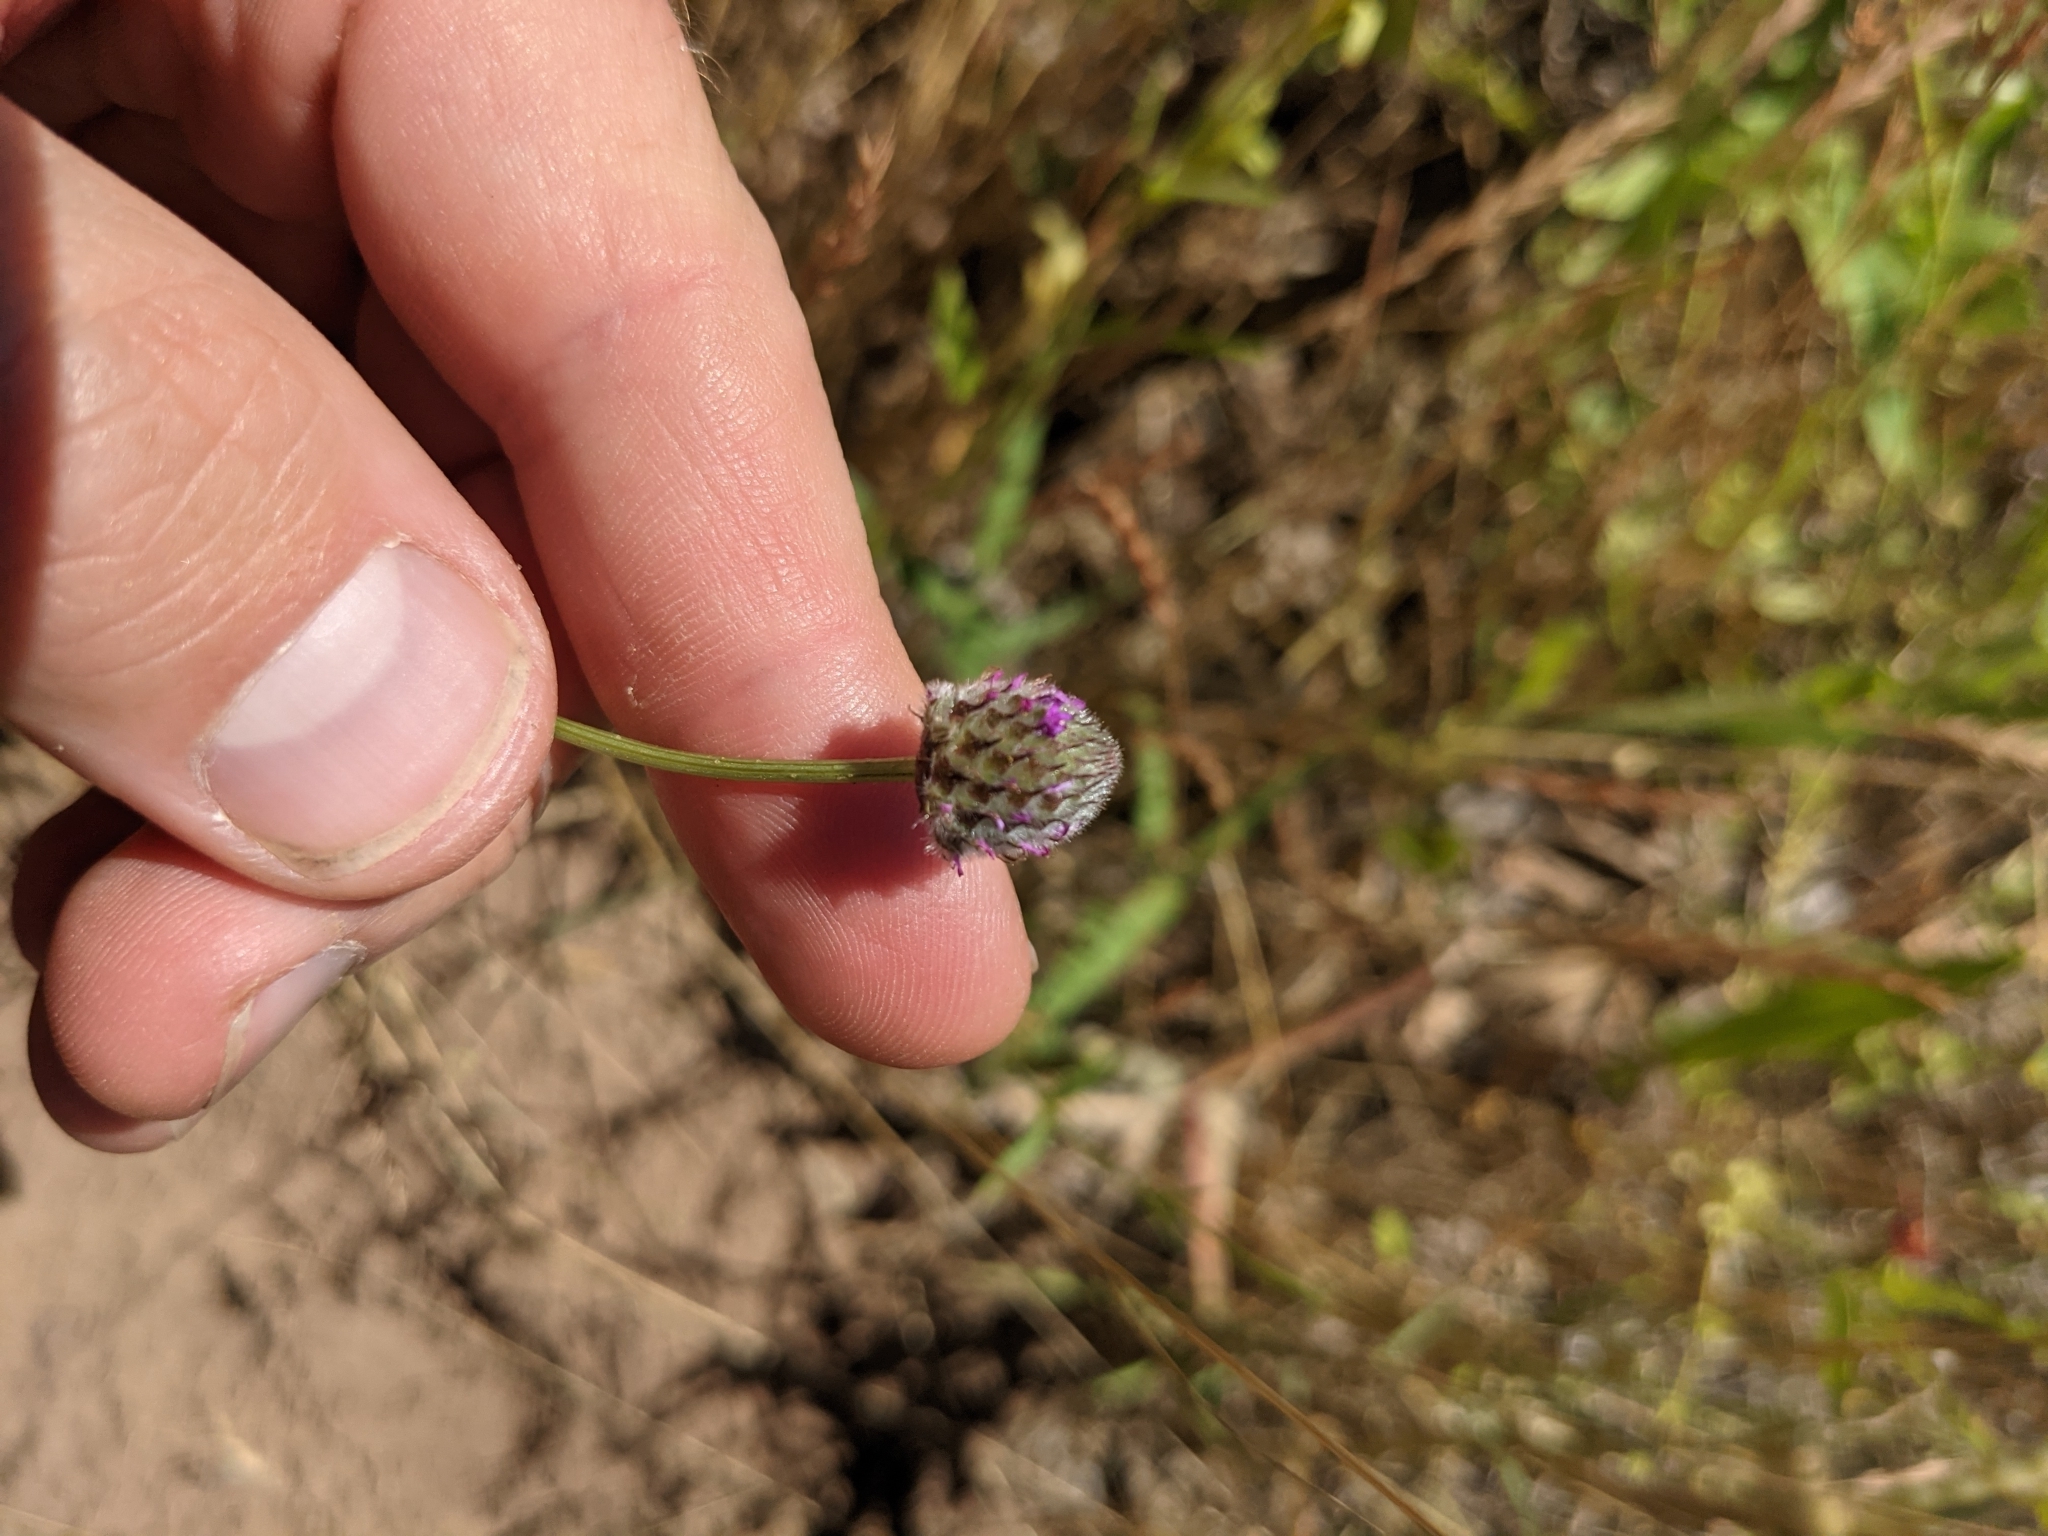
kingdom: Plantae
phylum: Tracheophyta
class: Magnoliopsida
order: Fabales
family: Fabaceae
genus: Dalea
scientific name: Dalea emarginata
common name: Wedgeleaf prairie clover
